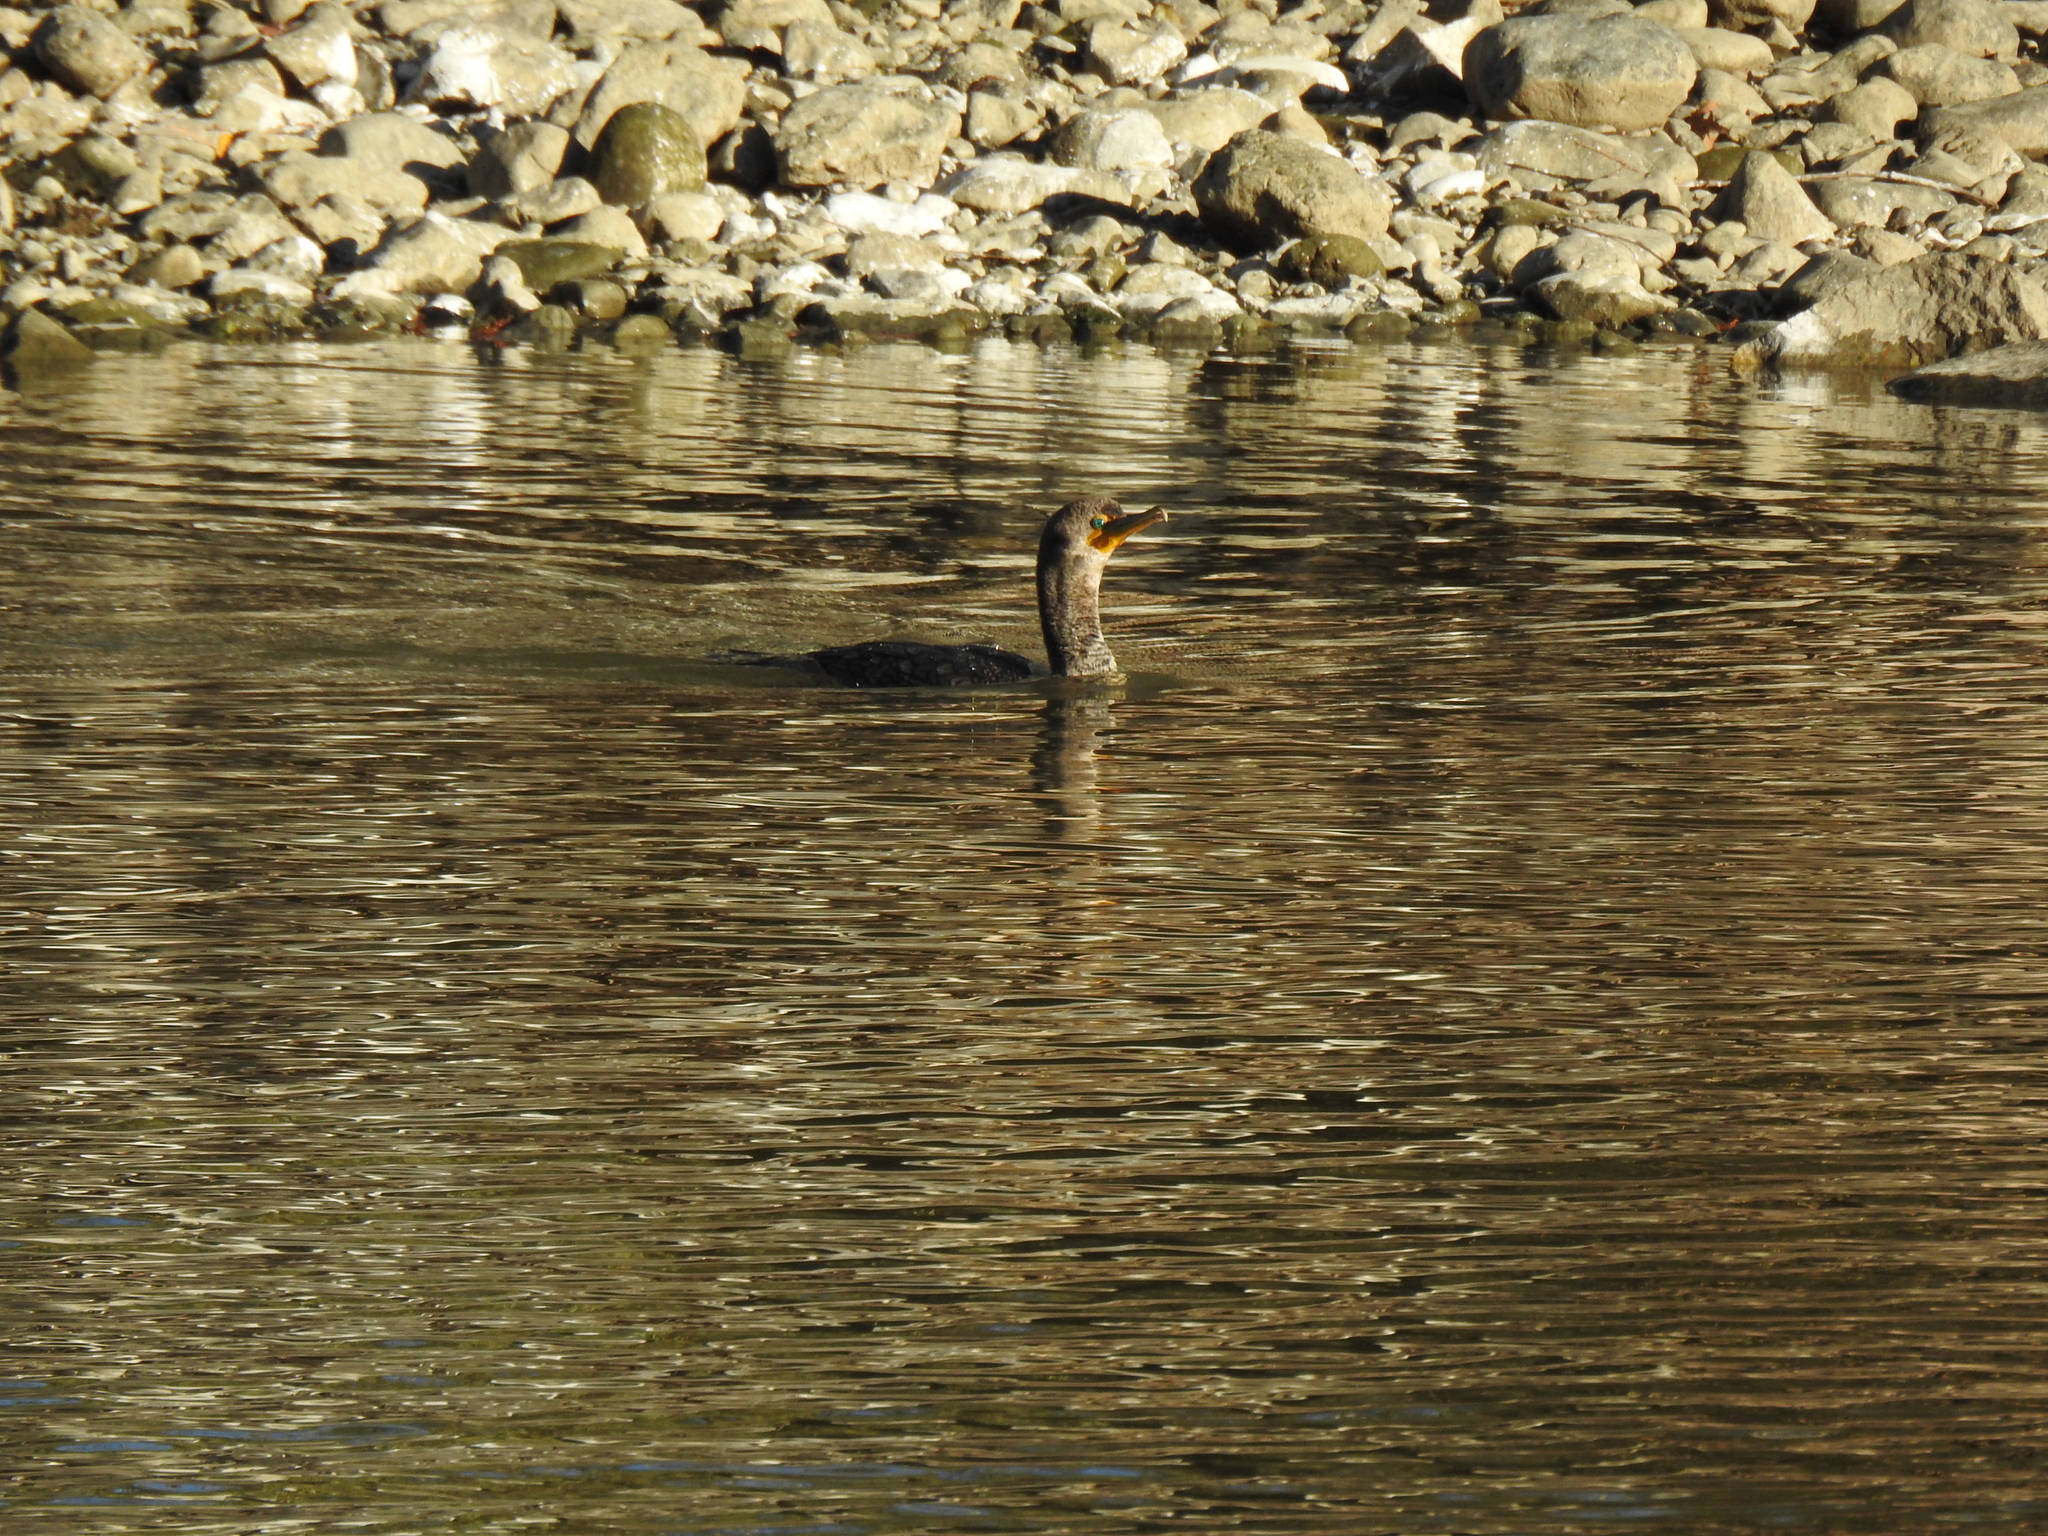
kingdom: Animalia
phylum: Chordata
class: Aves
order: Suliformes
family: Phalacrocoracidae
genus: Phalacrocorax
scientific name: Phalacrocorax auritus
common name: Double-crested cormorant
